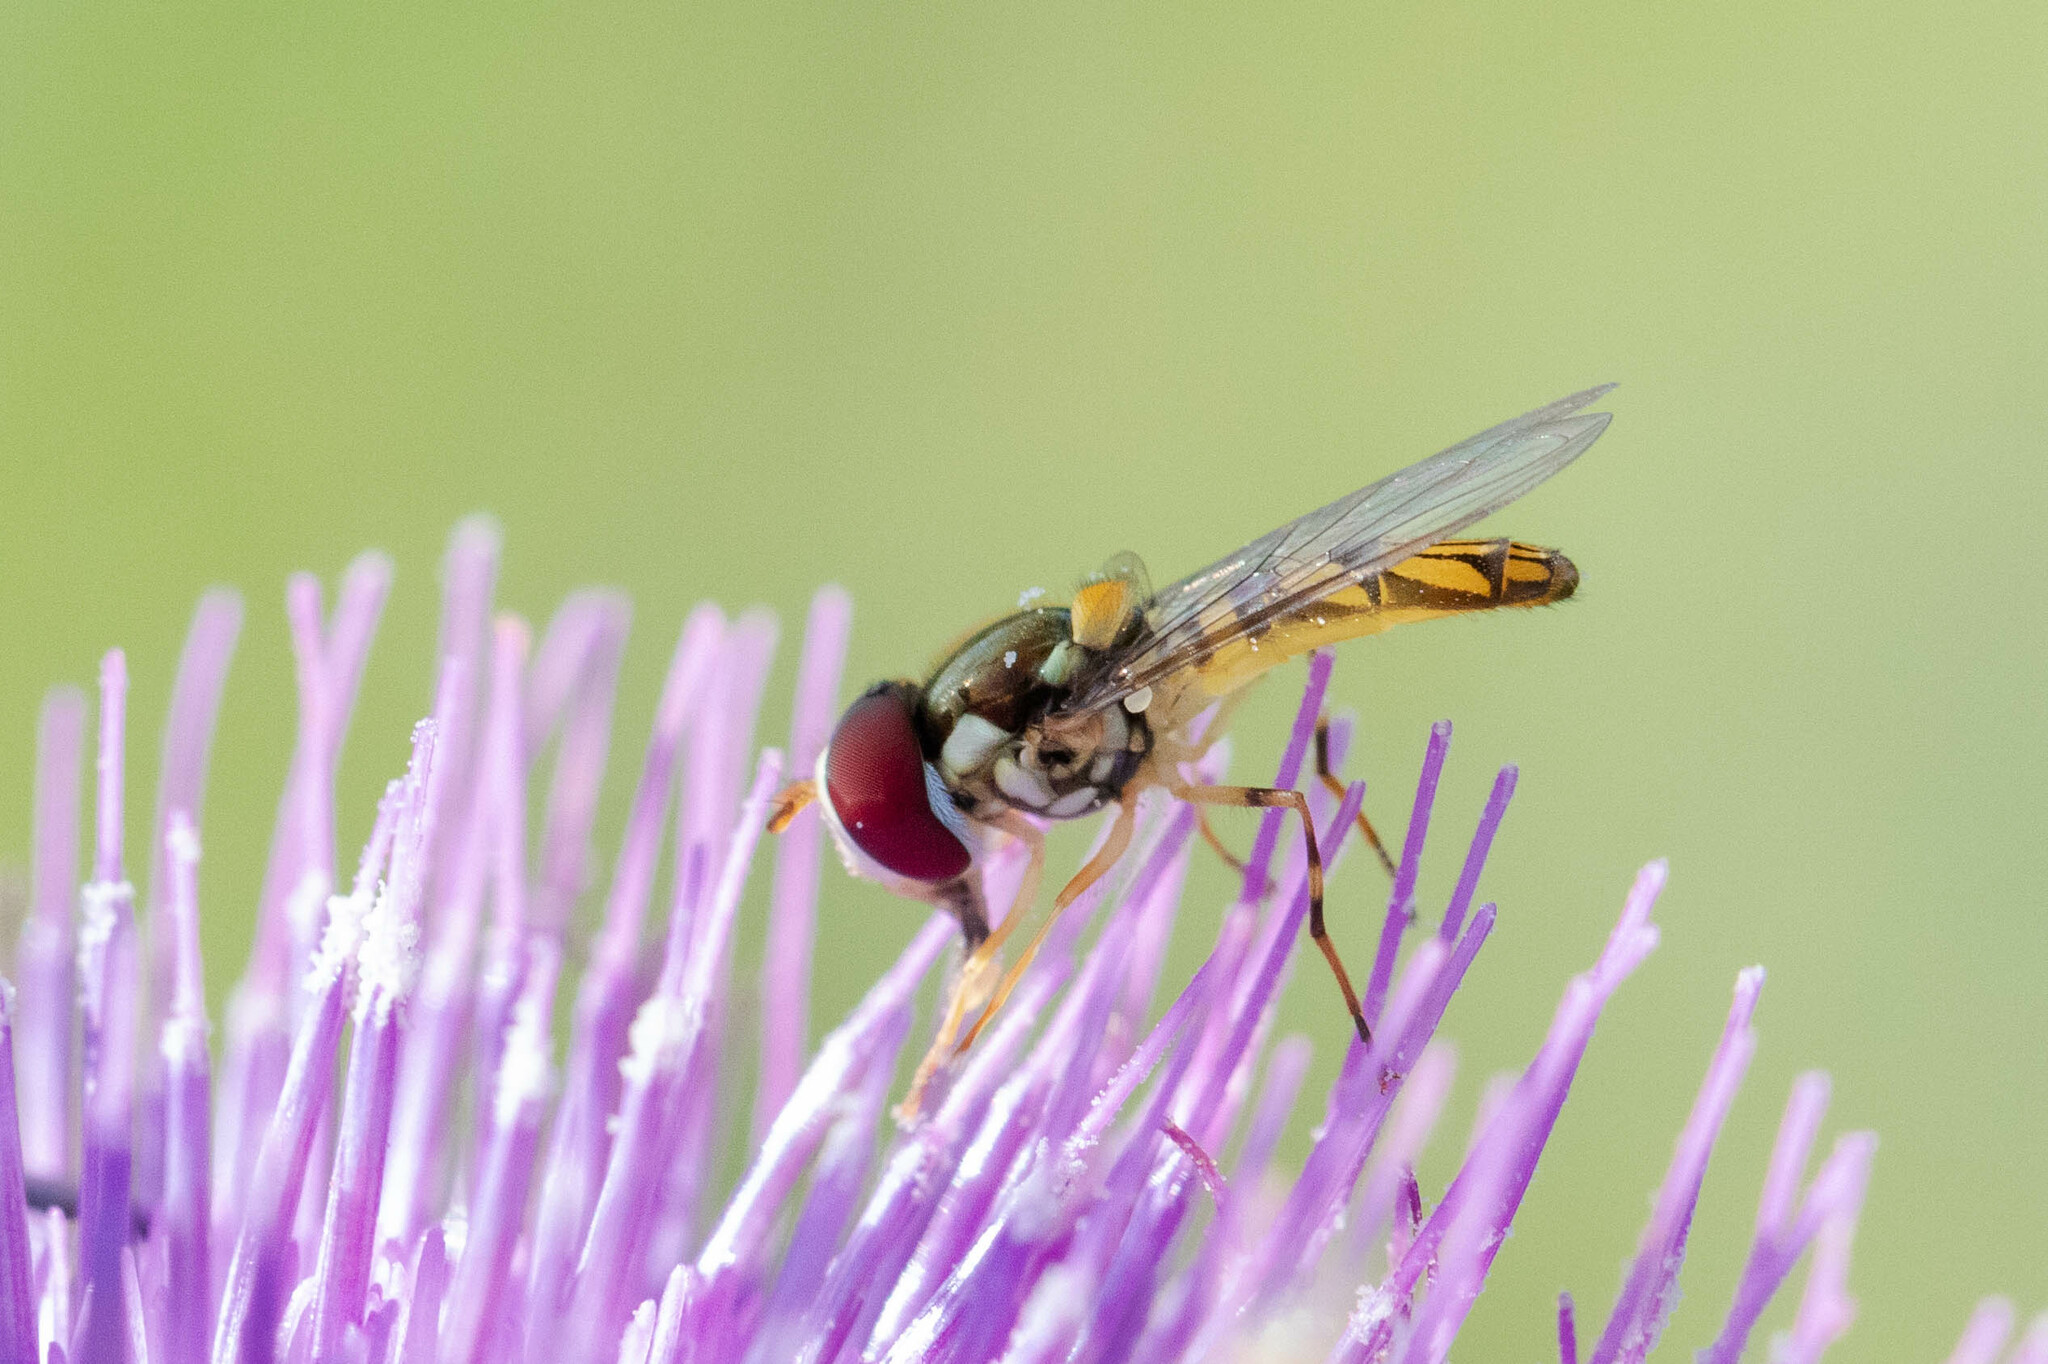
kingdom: Animalia
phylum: Arthropoda
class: Insecta
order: Diptera
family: Syrphidae
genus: Allograpta
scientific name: Allograpta obliqua
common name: Common oblique syrphid
